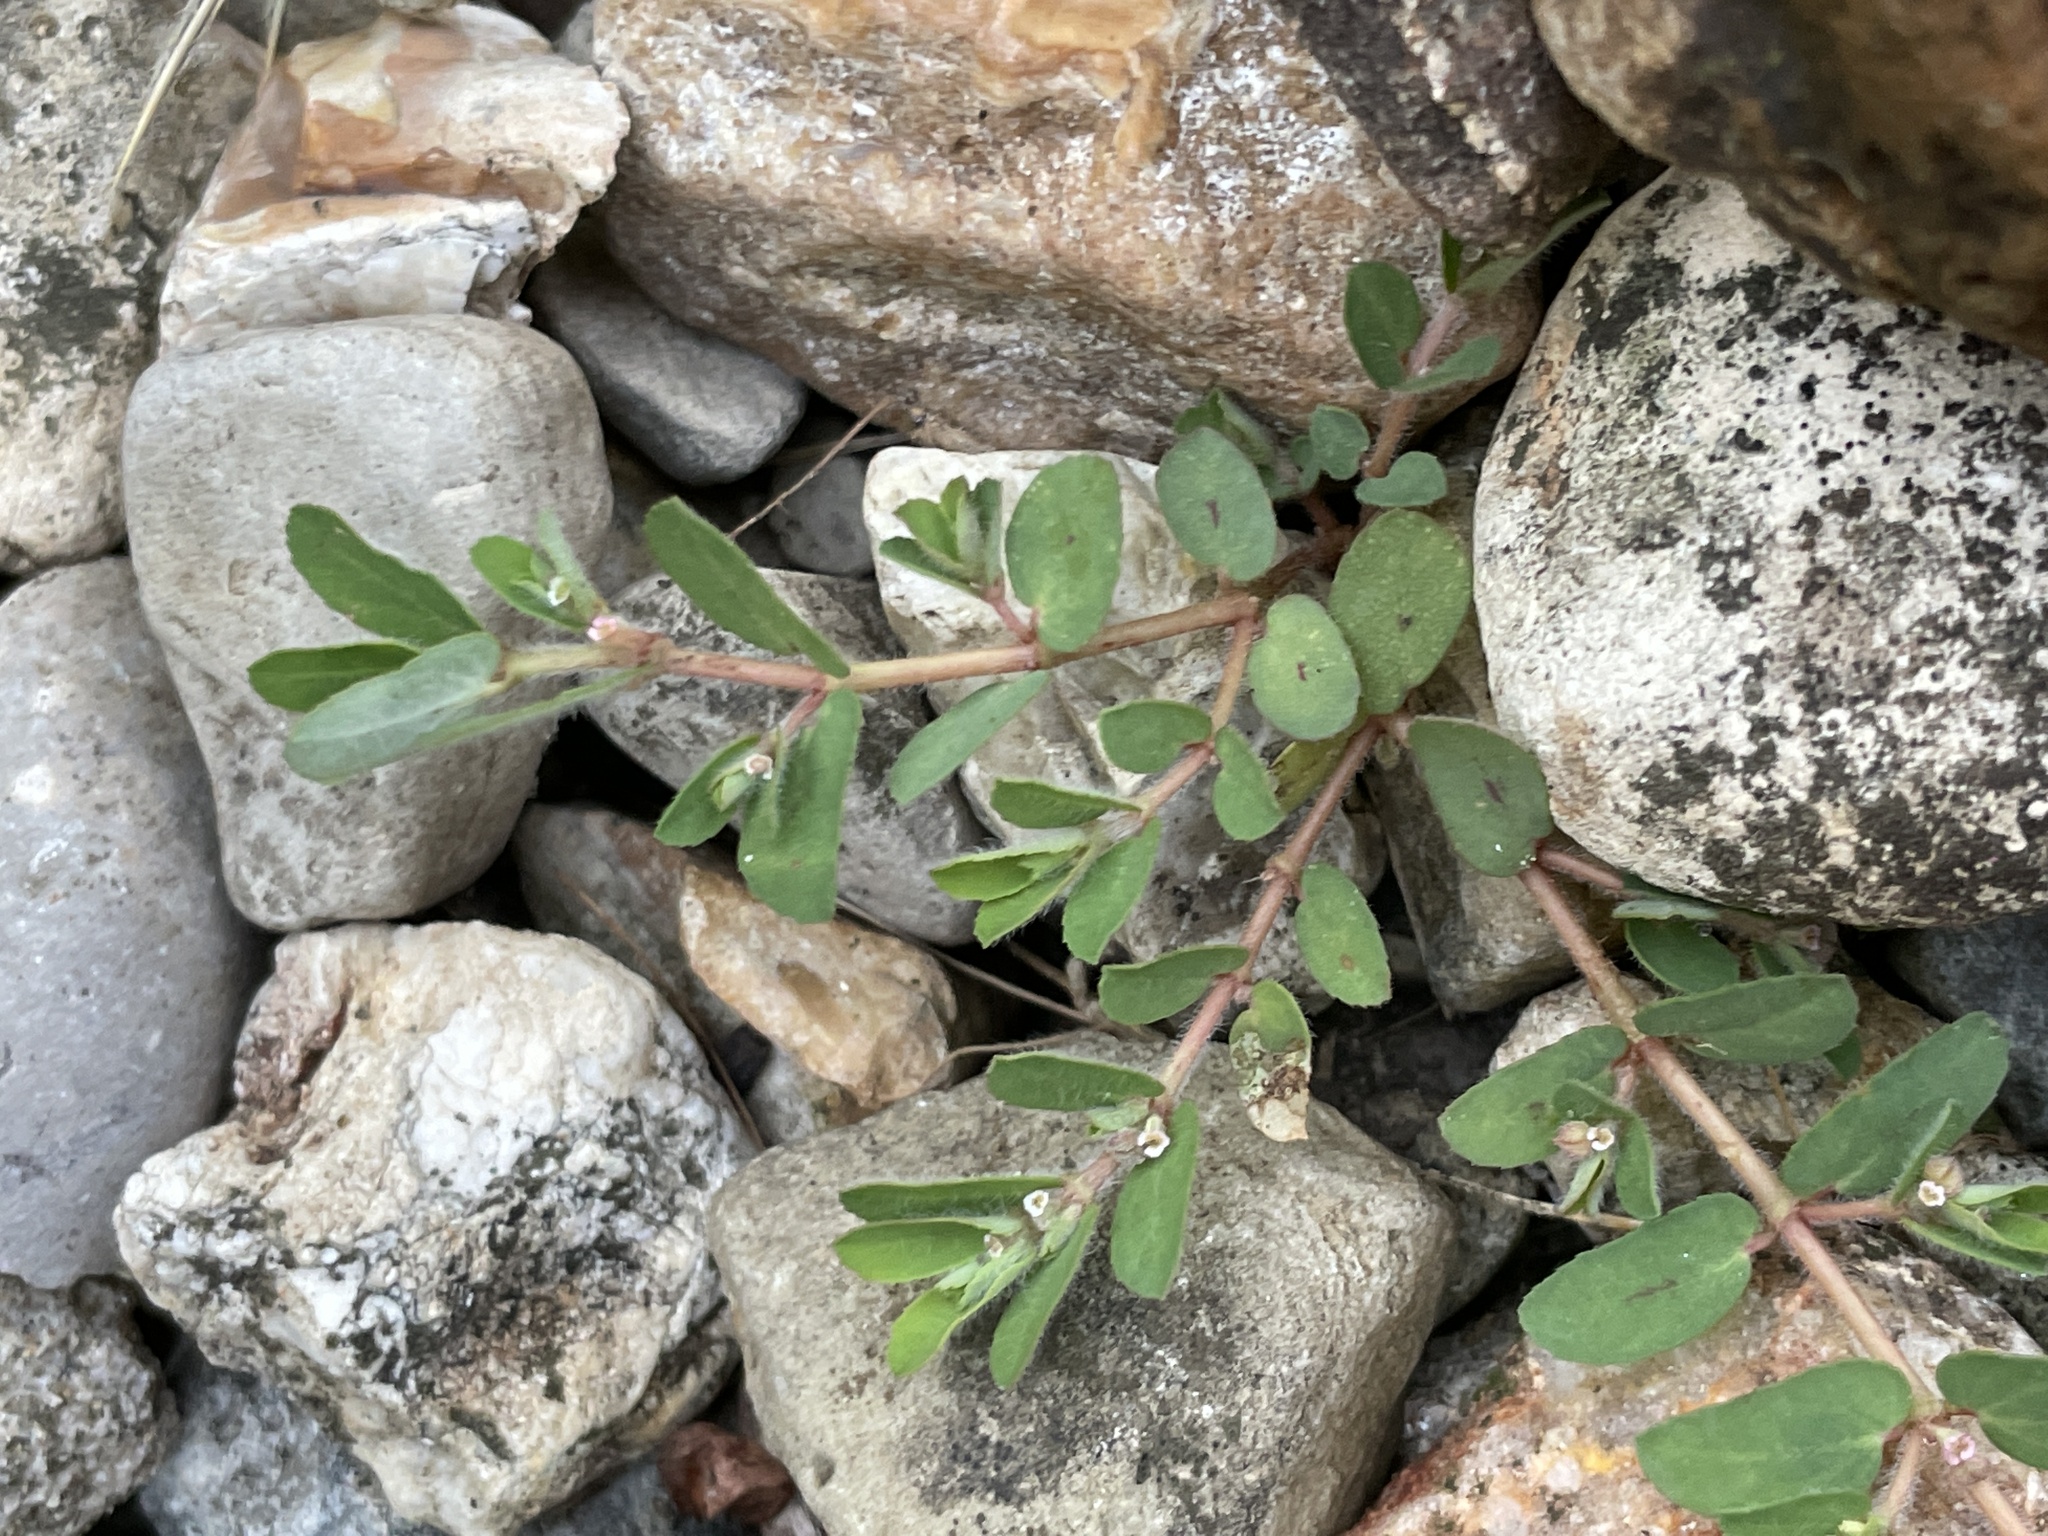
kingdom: Plantae
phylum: Tracheophyta
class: Magnoliopsida
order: Malpighiales
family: Euphorbiaceae
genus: Euphorbia
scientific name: Euphorbia maculata
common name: Spotted spurge
